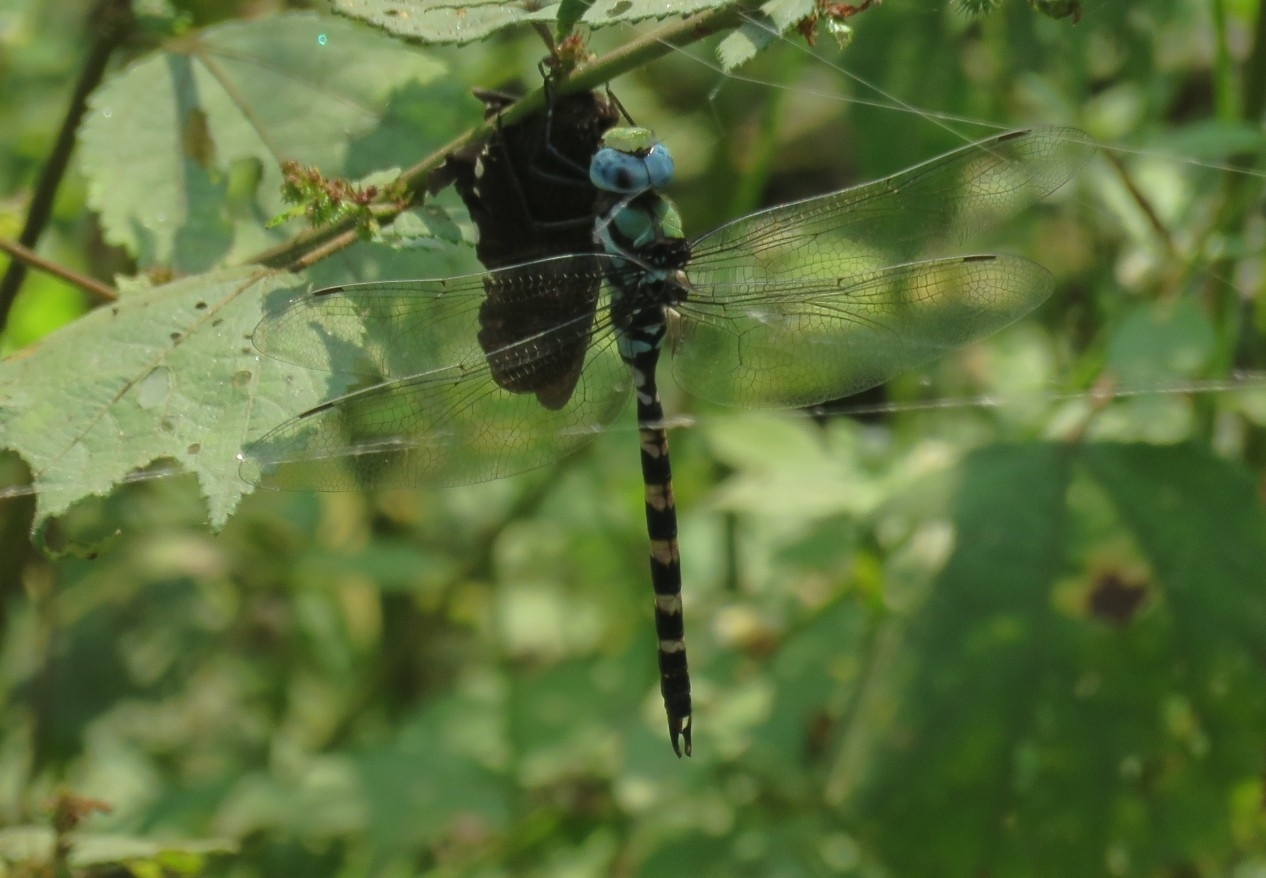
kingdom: Animalia
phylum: Arthropoda
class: Insecta
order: Odonata
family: Aeshnidae
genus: Anax
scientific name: Anax immaculifrons
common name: Magnificent emperor
